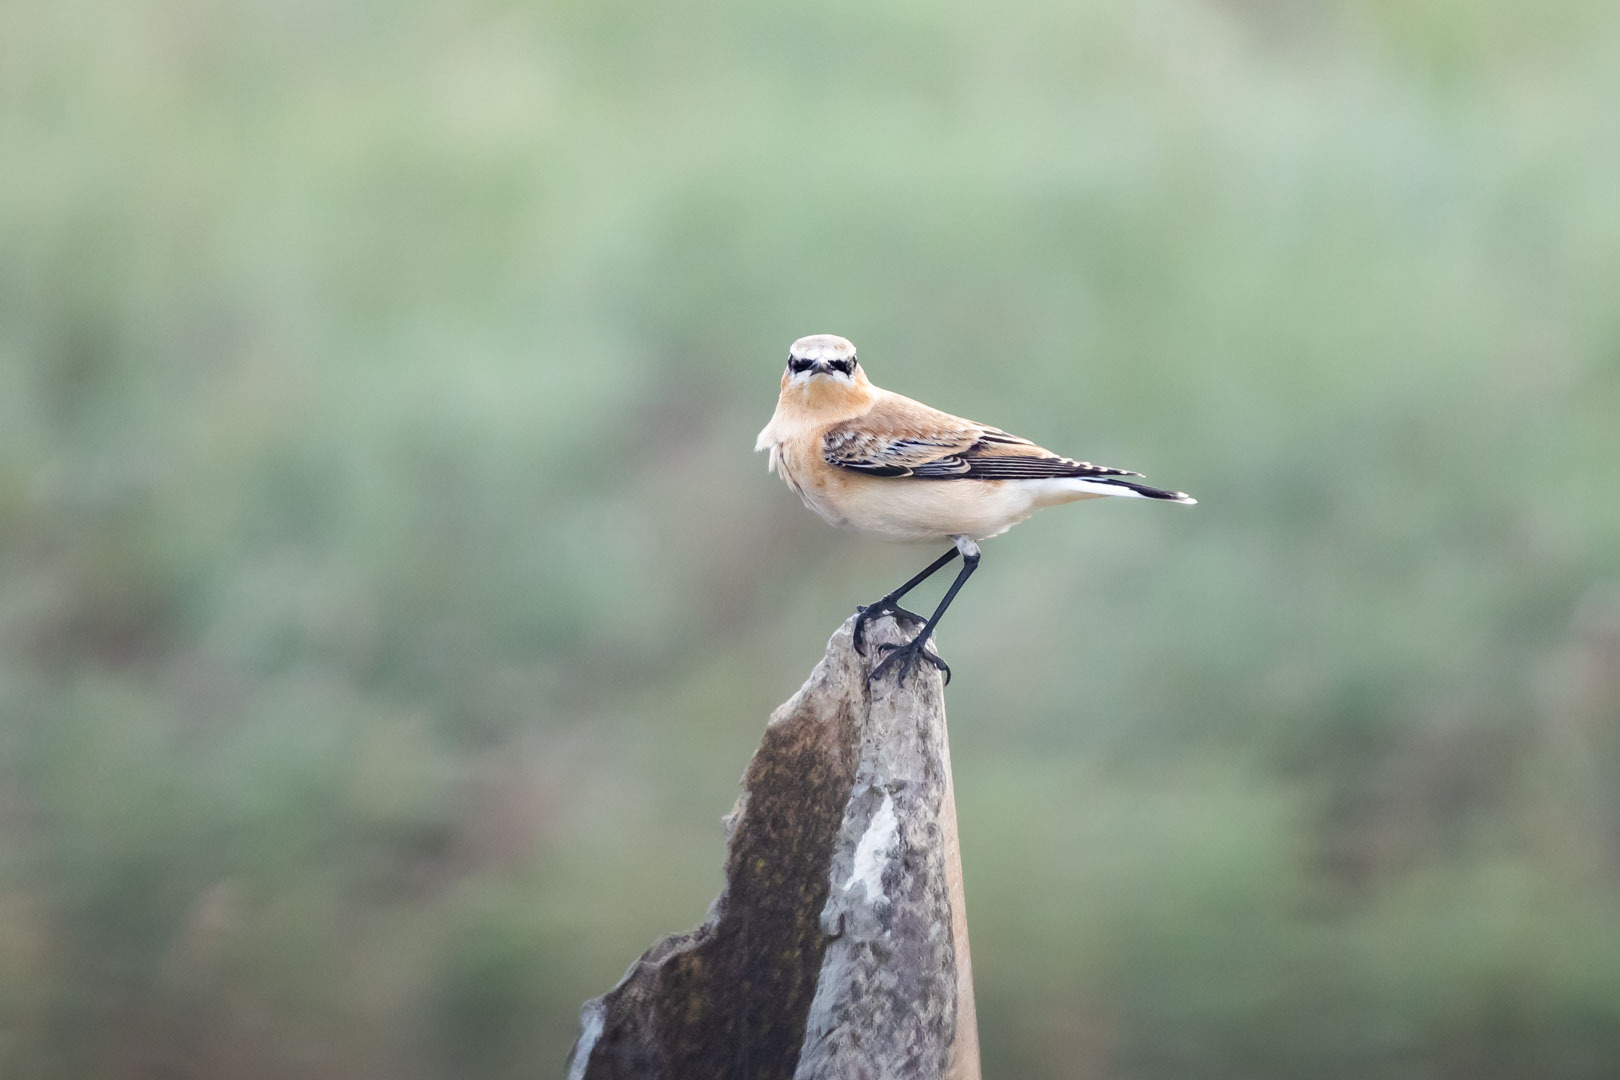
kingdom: Animalia
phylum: Chordata
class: Aves
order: Passeriformes
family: Muscicapidae
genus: Oenanthe
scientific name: Oenanthe oenanthe
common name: Northern wheatear
